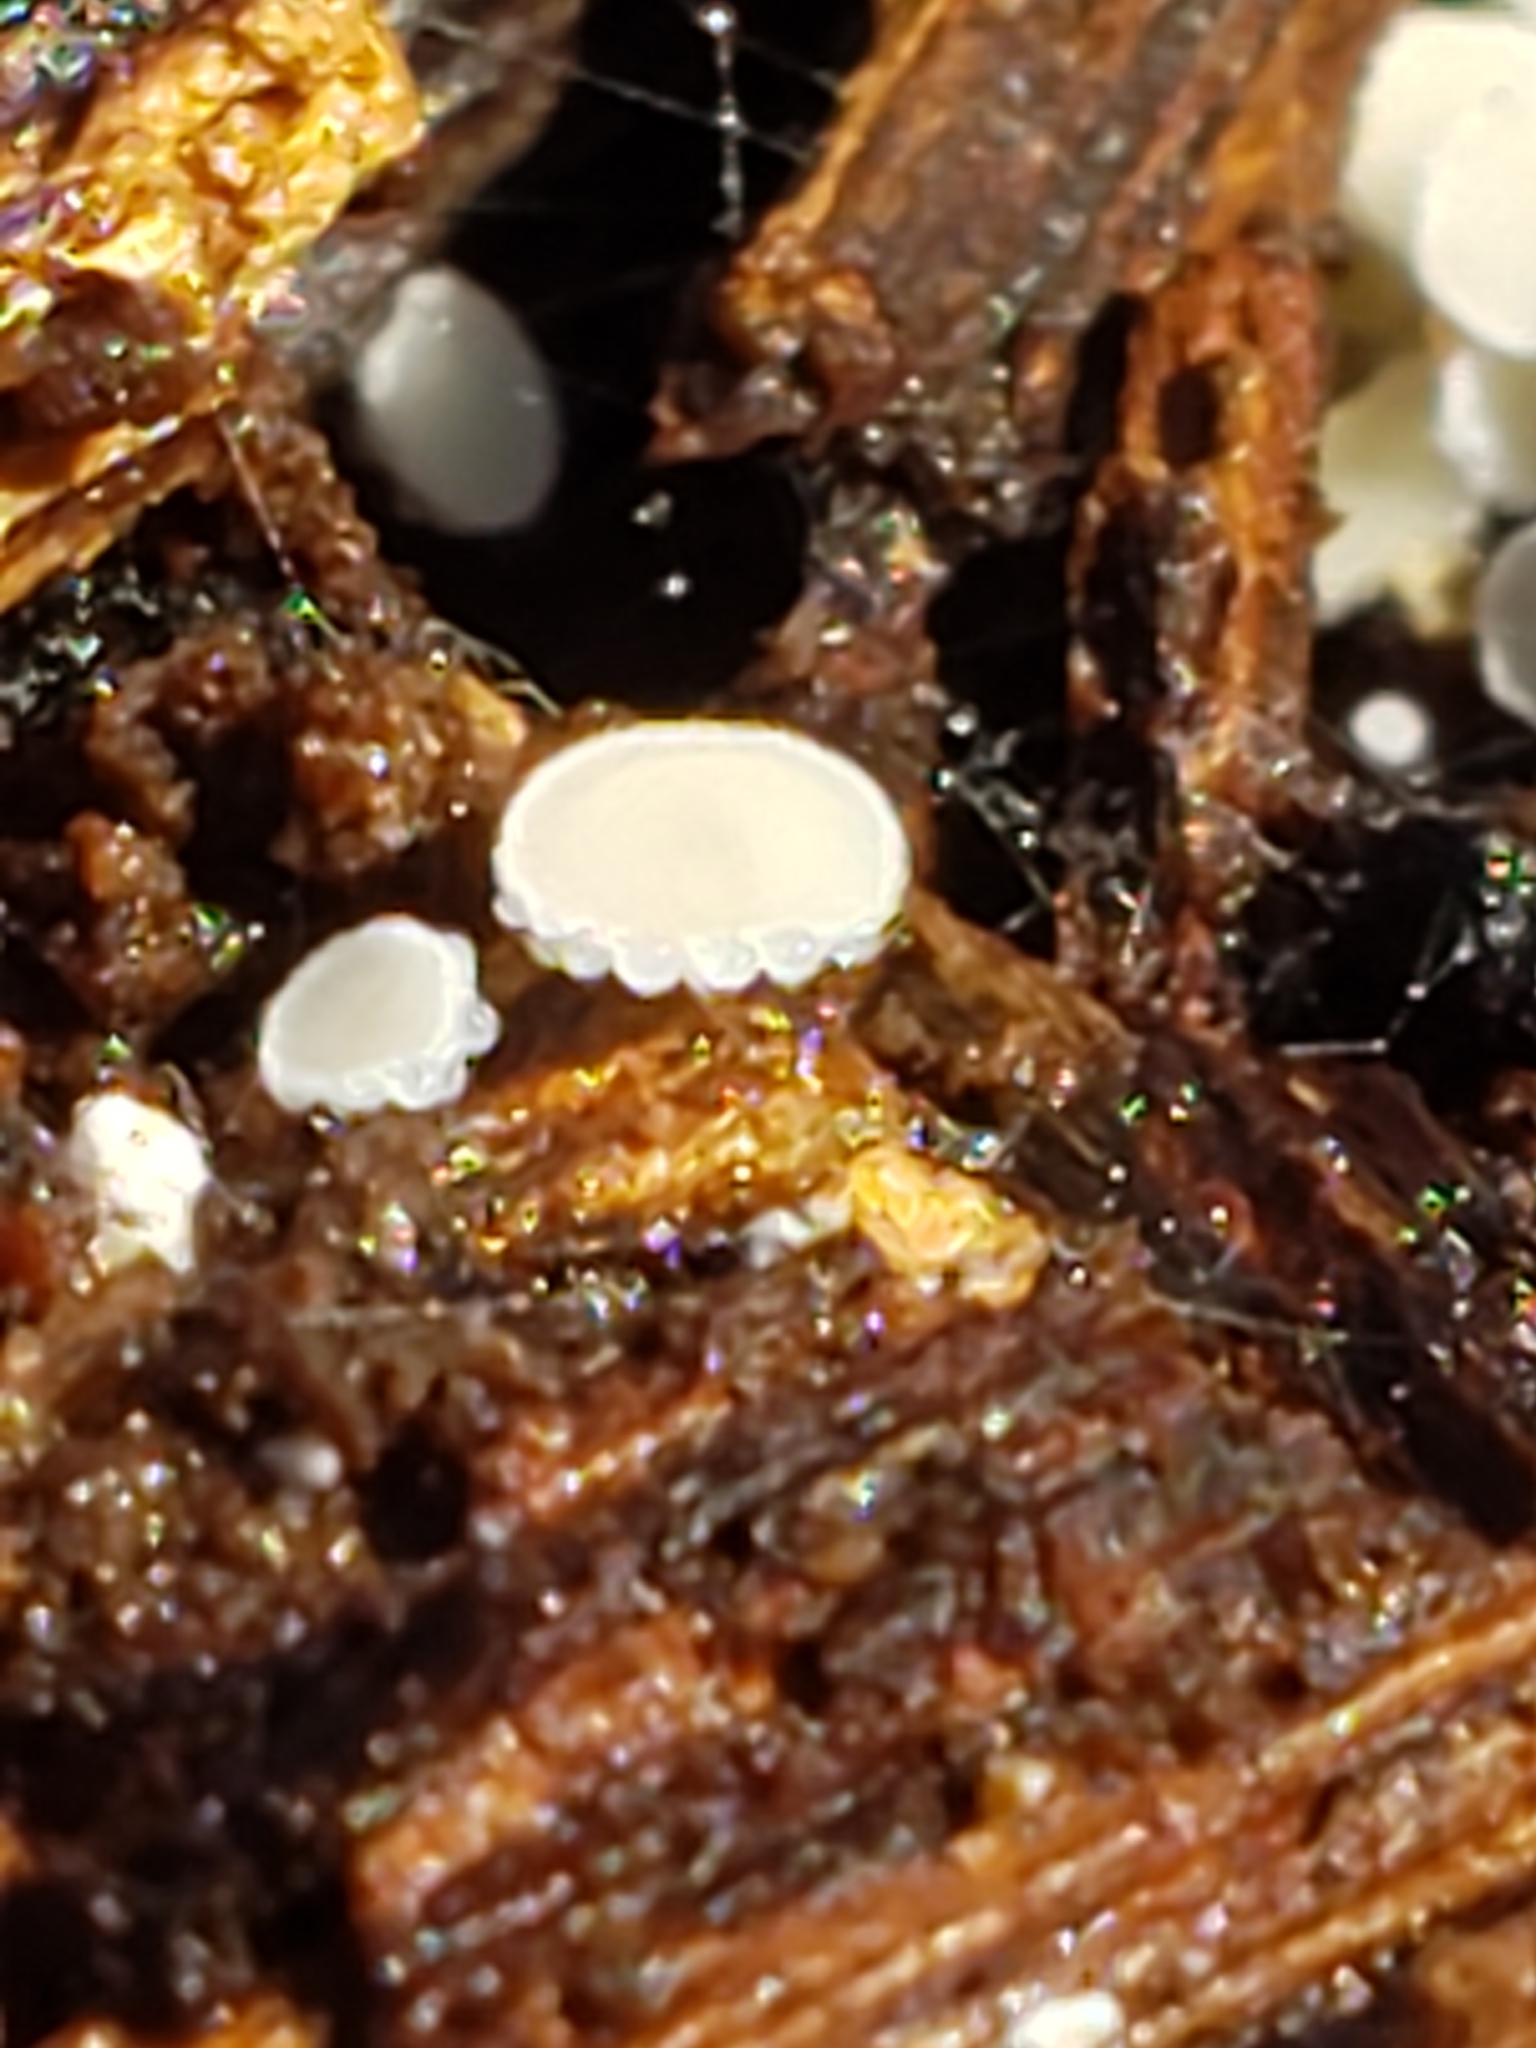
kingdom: Fungi
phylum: Ascomycota
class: Leotiomycetes
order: Helotiales
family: Lachnaceae
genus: Lachnum
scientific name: Lachnum virgineum
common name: Snowy disco
